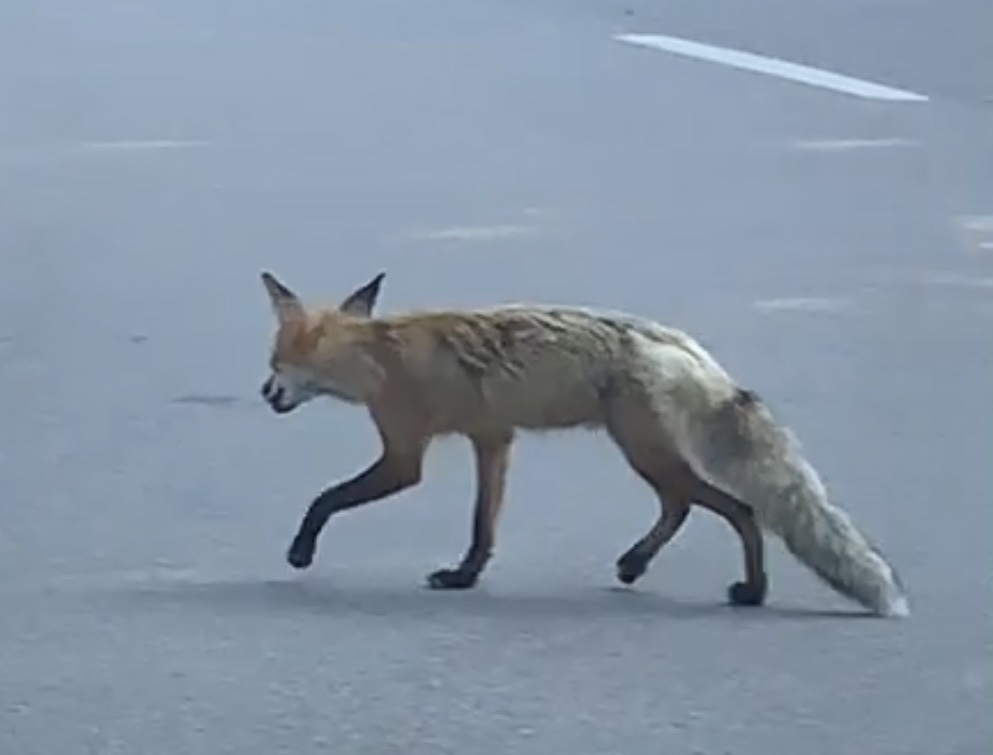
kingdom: Animalia
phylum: Chordata
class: Mammalia
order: Carnivora
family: Canidae
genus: Vulpes
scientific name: Vulpes vulpes
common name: Red fox
